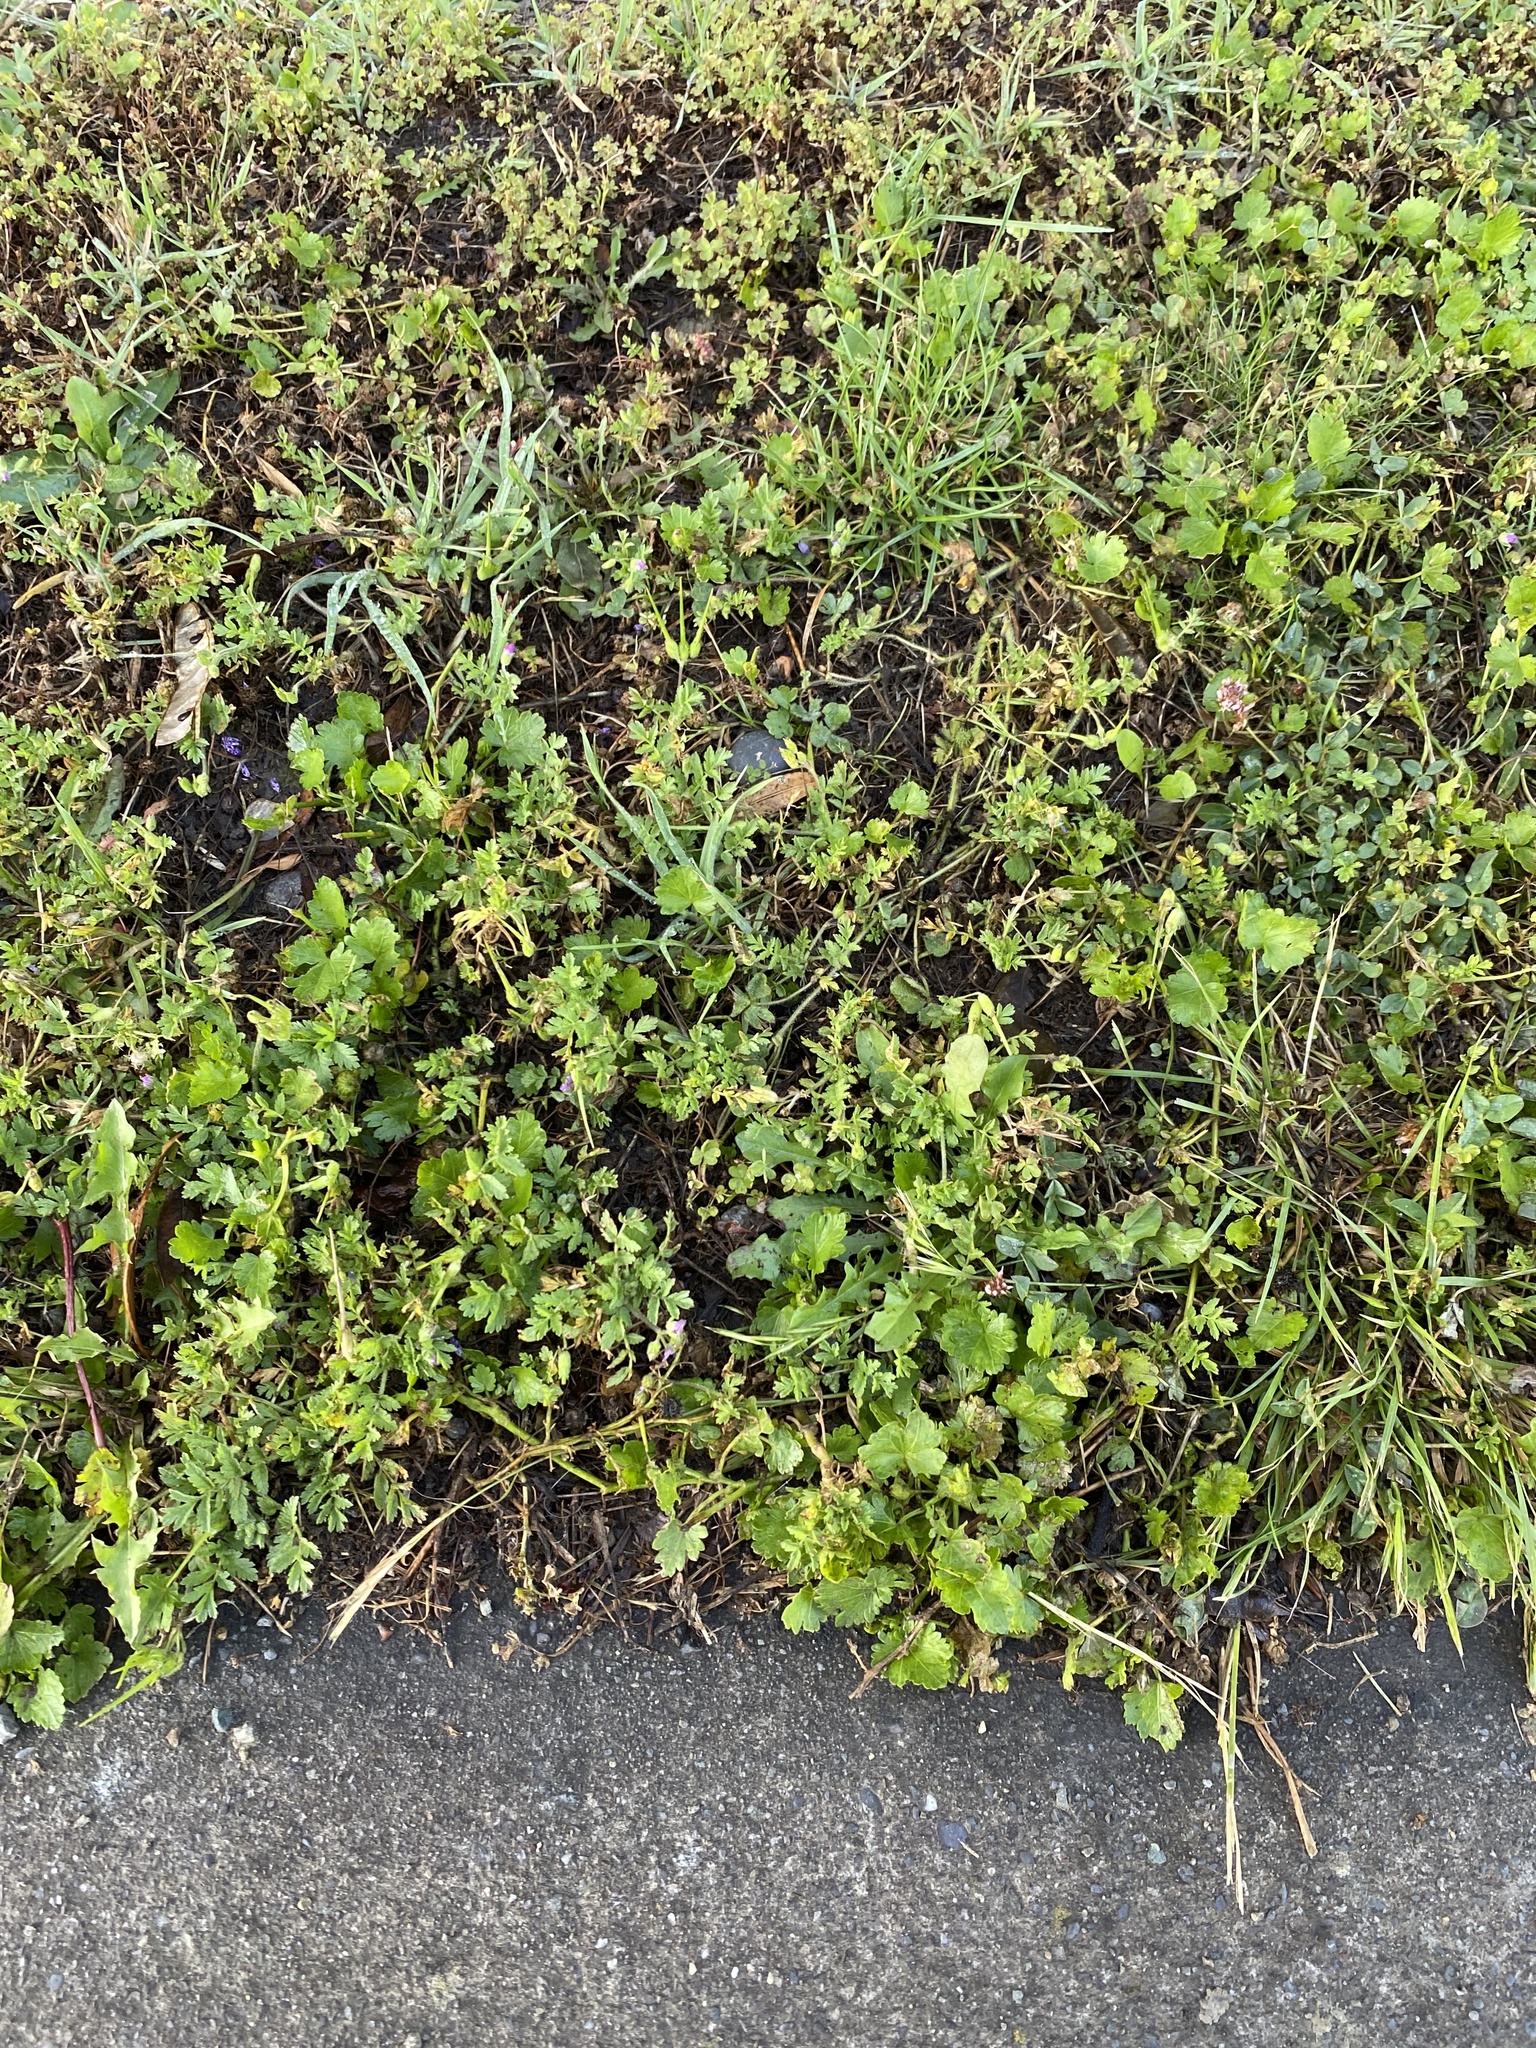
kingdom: Plantae
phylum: Tracheophyta
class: Magnoliopsida
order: Malvales
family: Malvaceae
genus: Modiola
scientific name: Modiola caroliniana
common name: Carolina bristlemallow
